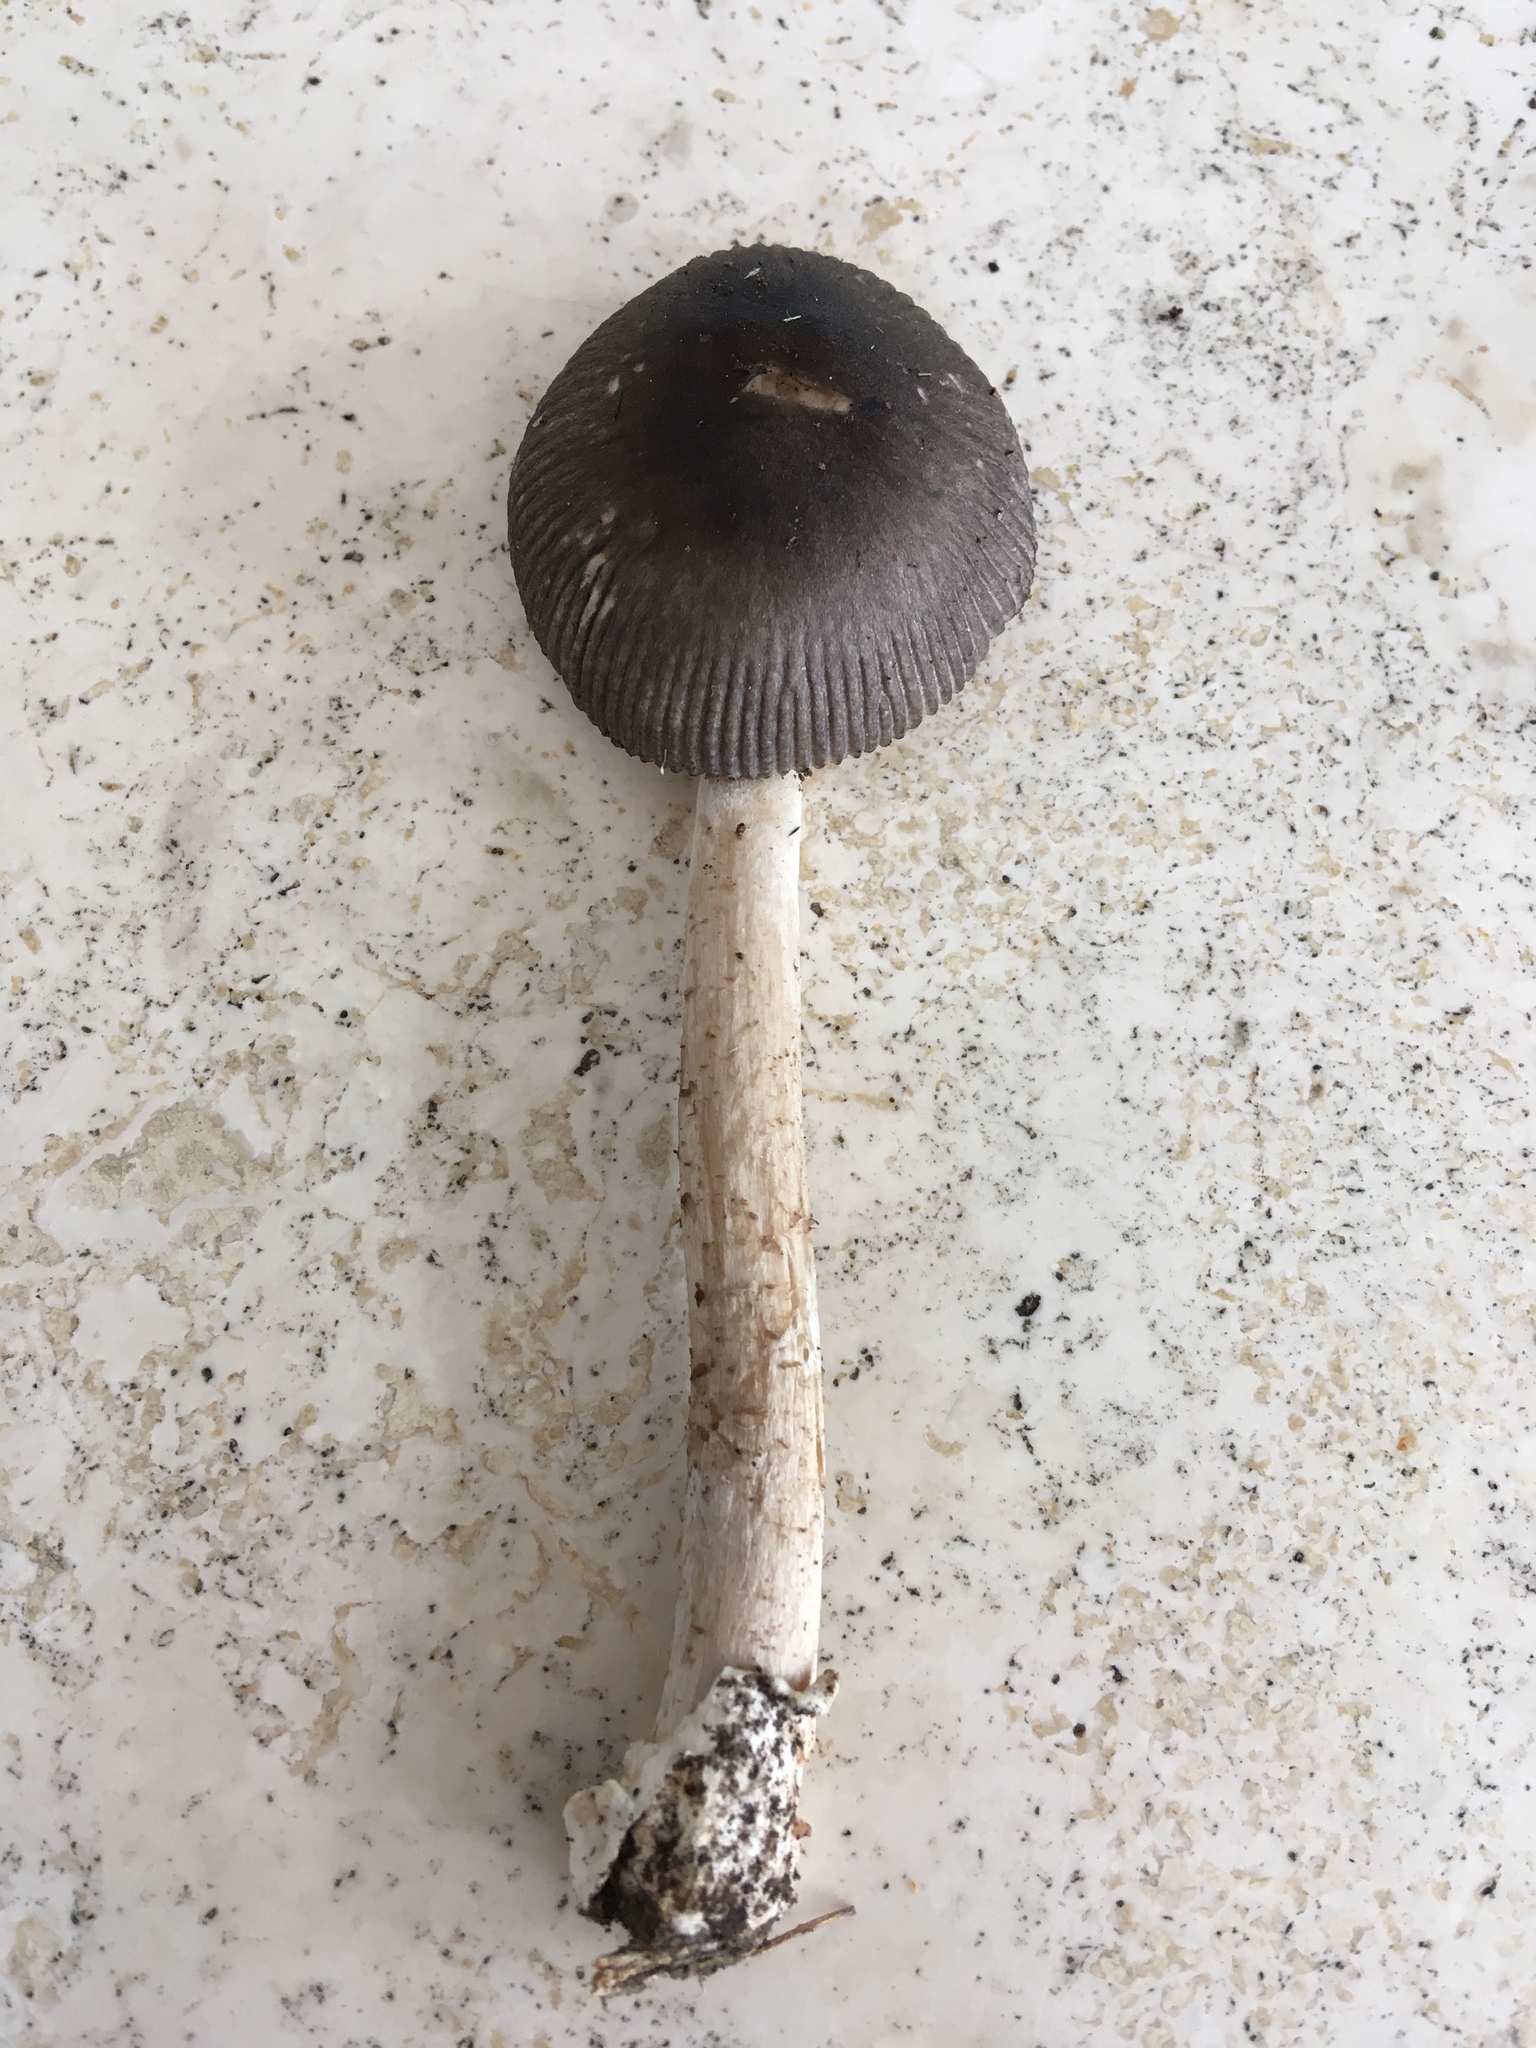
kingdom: Fungi
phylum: Basidiomycota
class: Agaricomycetes
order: Agaricales
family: Amanitaceae
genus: Amanita
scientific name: Amanita vaginata
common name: Grisette
